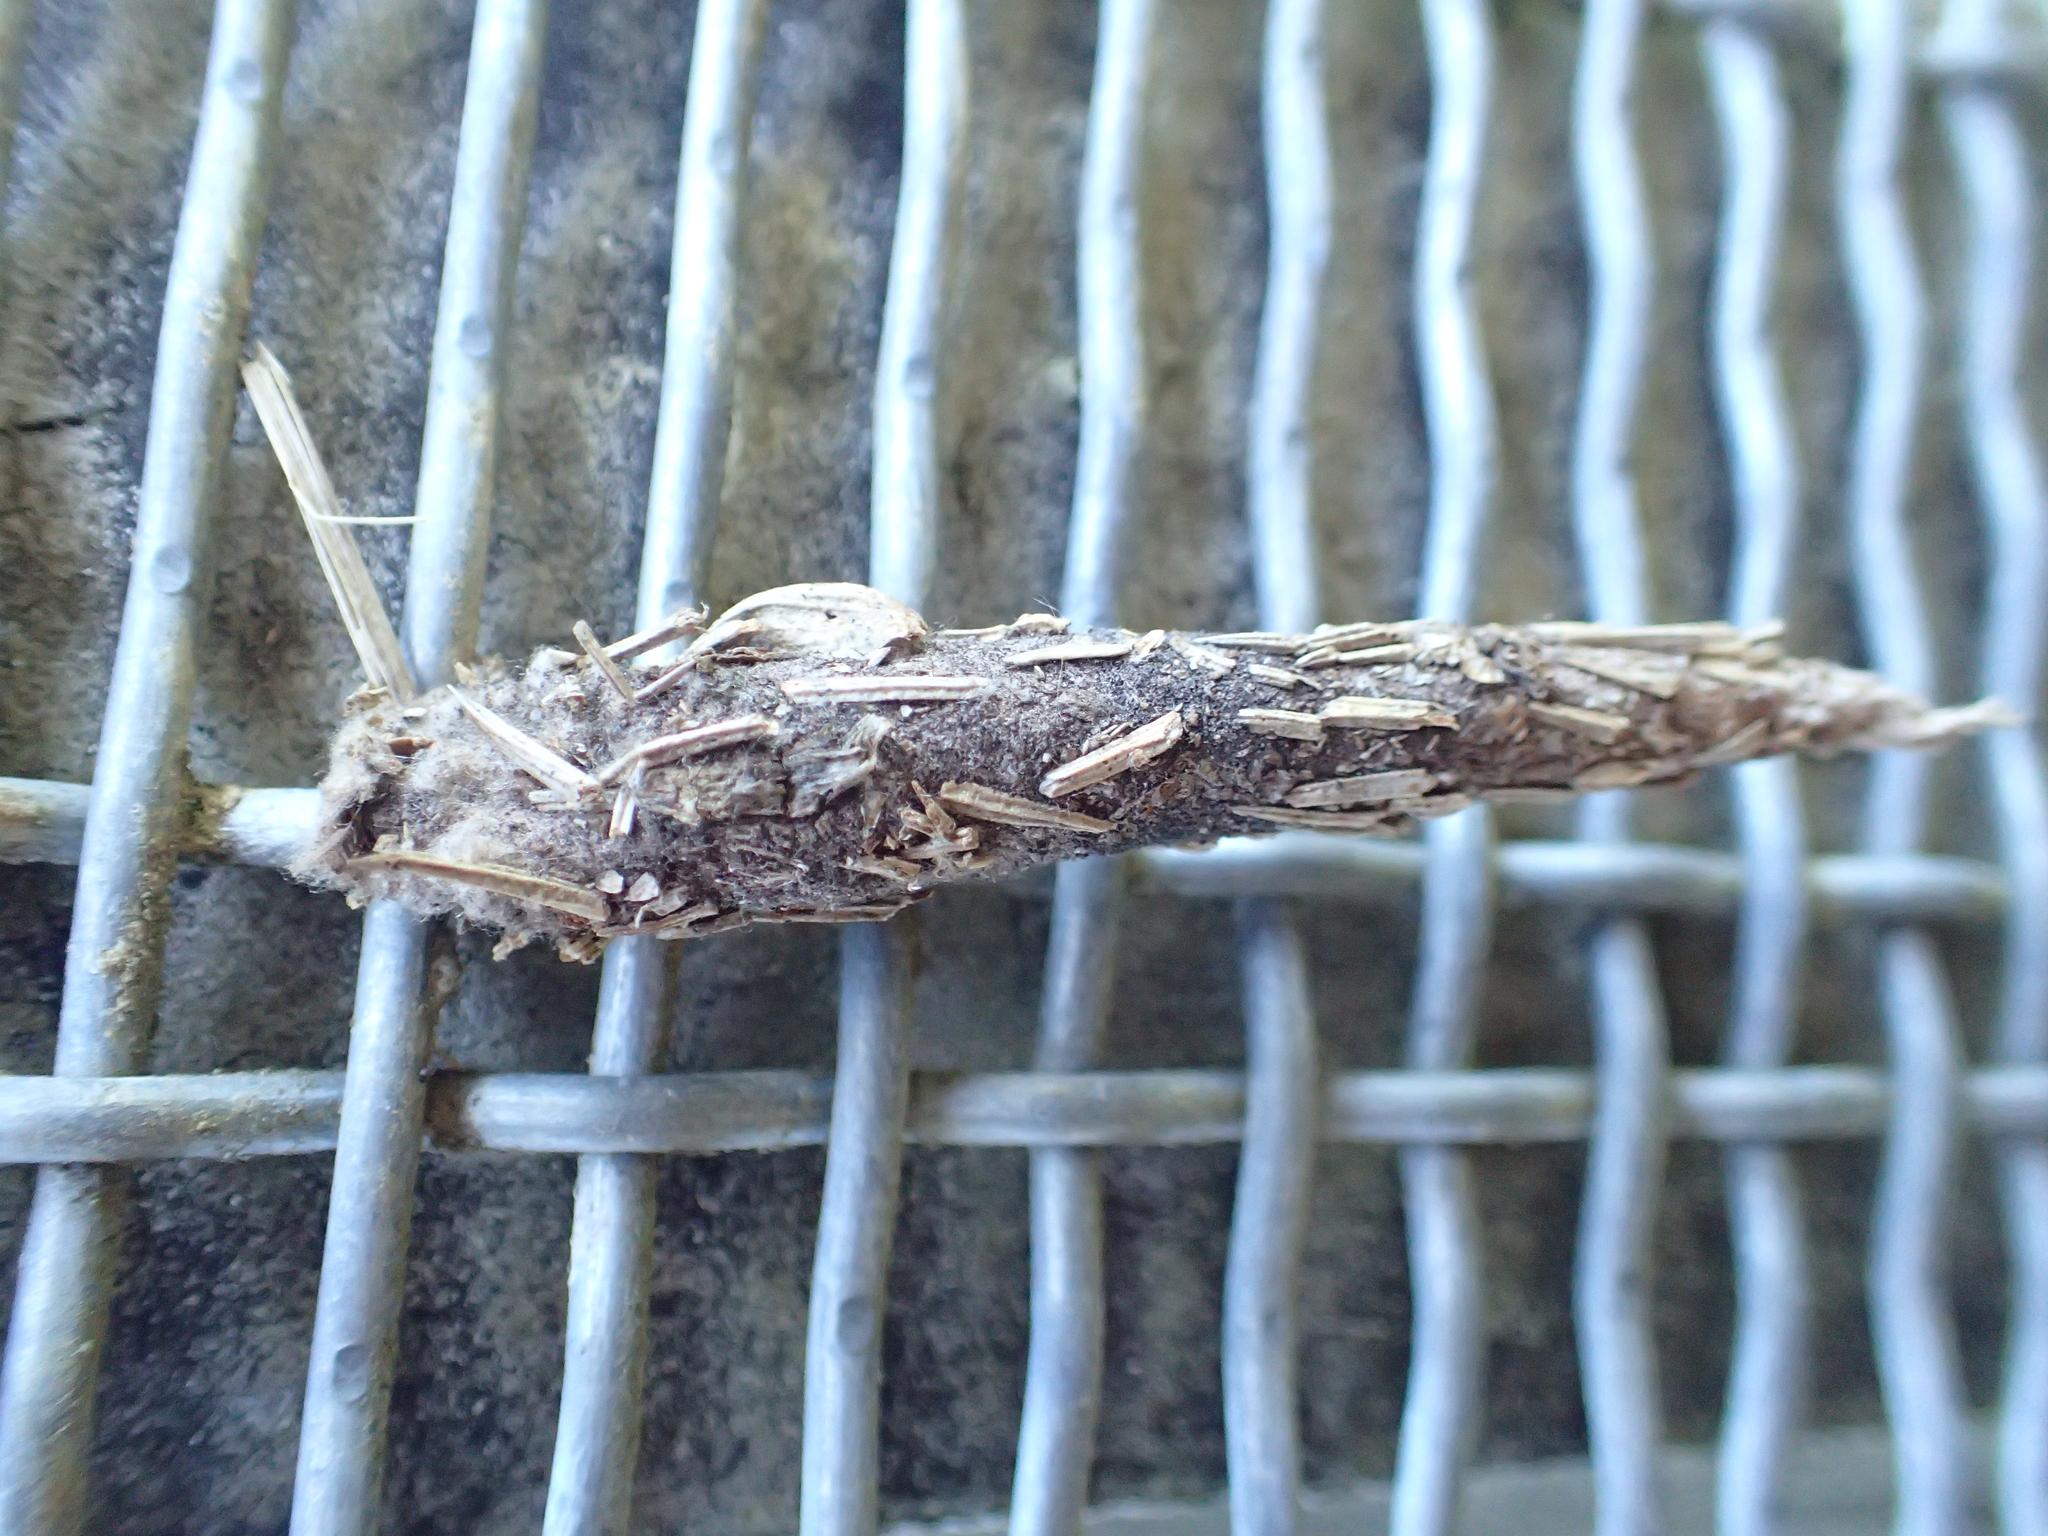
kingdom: Animalia
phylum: Arthropoda
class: Insecta
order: Lepidoptera
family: Psychidae
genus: Liothula
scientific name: Liothula omnivora
